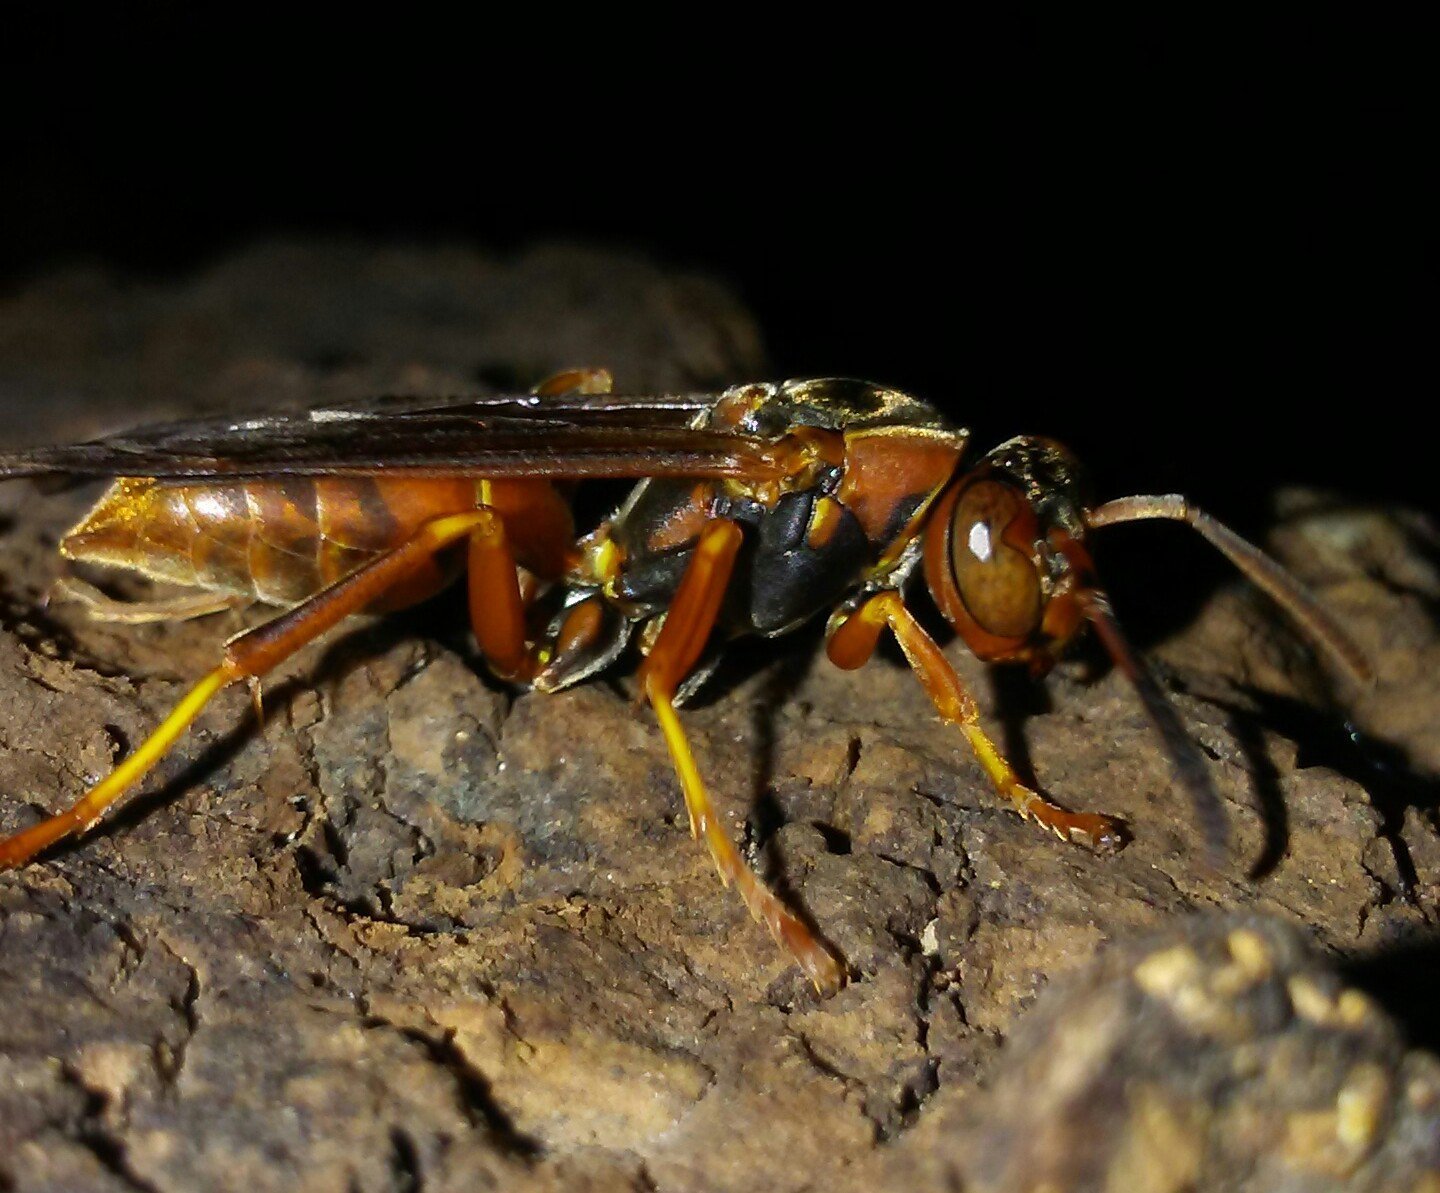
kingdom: Animalia
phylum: Arthropoda
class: Insecta
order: Hymenoptera
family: Eumenidae
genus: Polistes
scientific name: Polistes fuscatus
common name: Dark paper wasp
